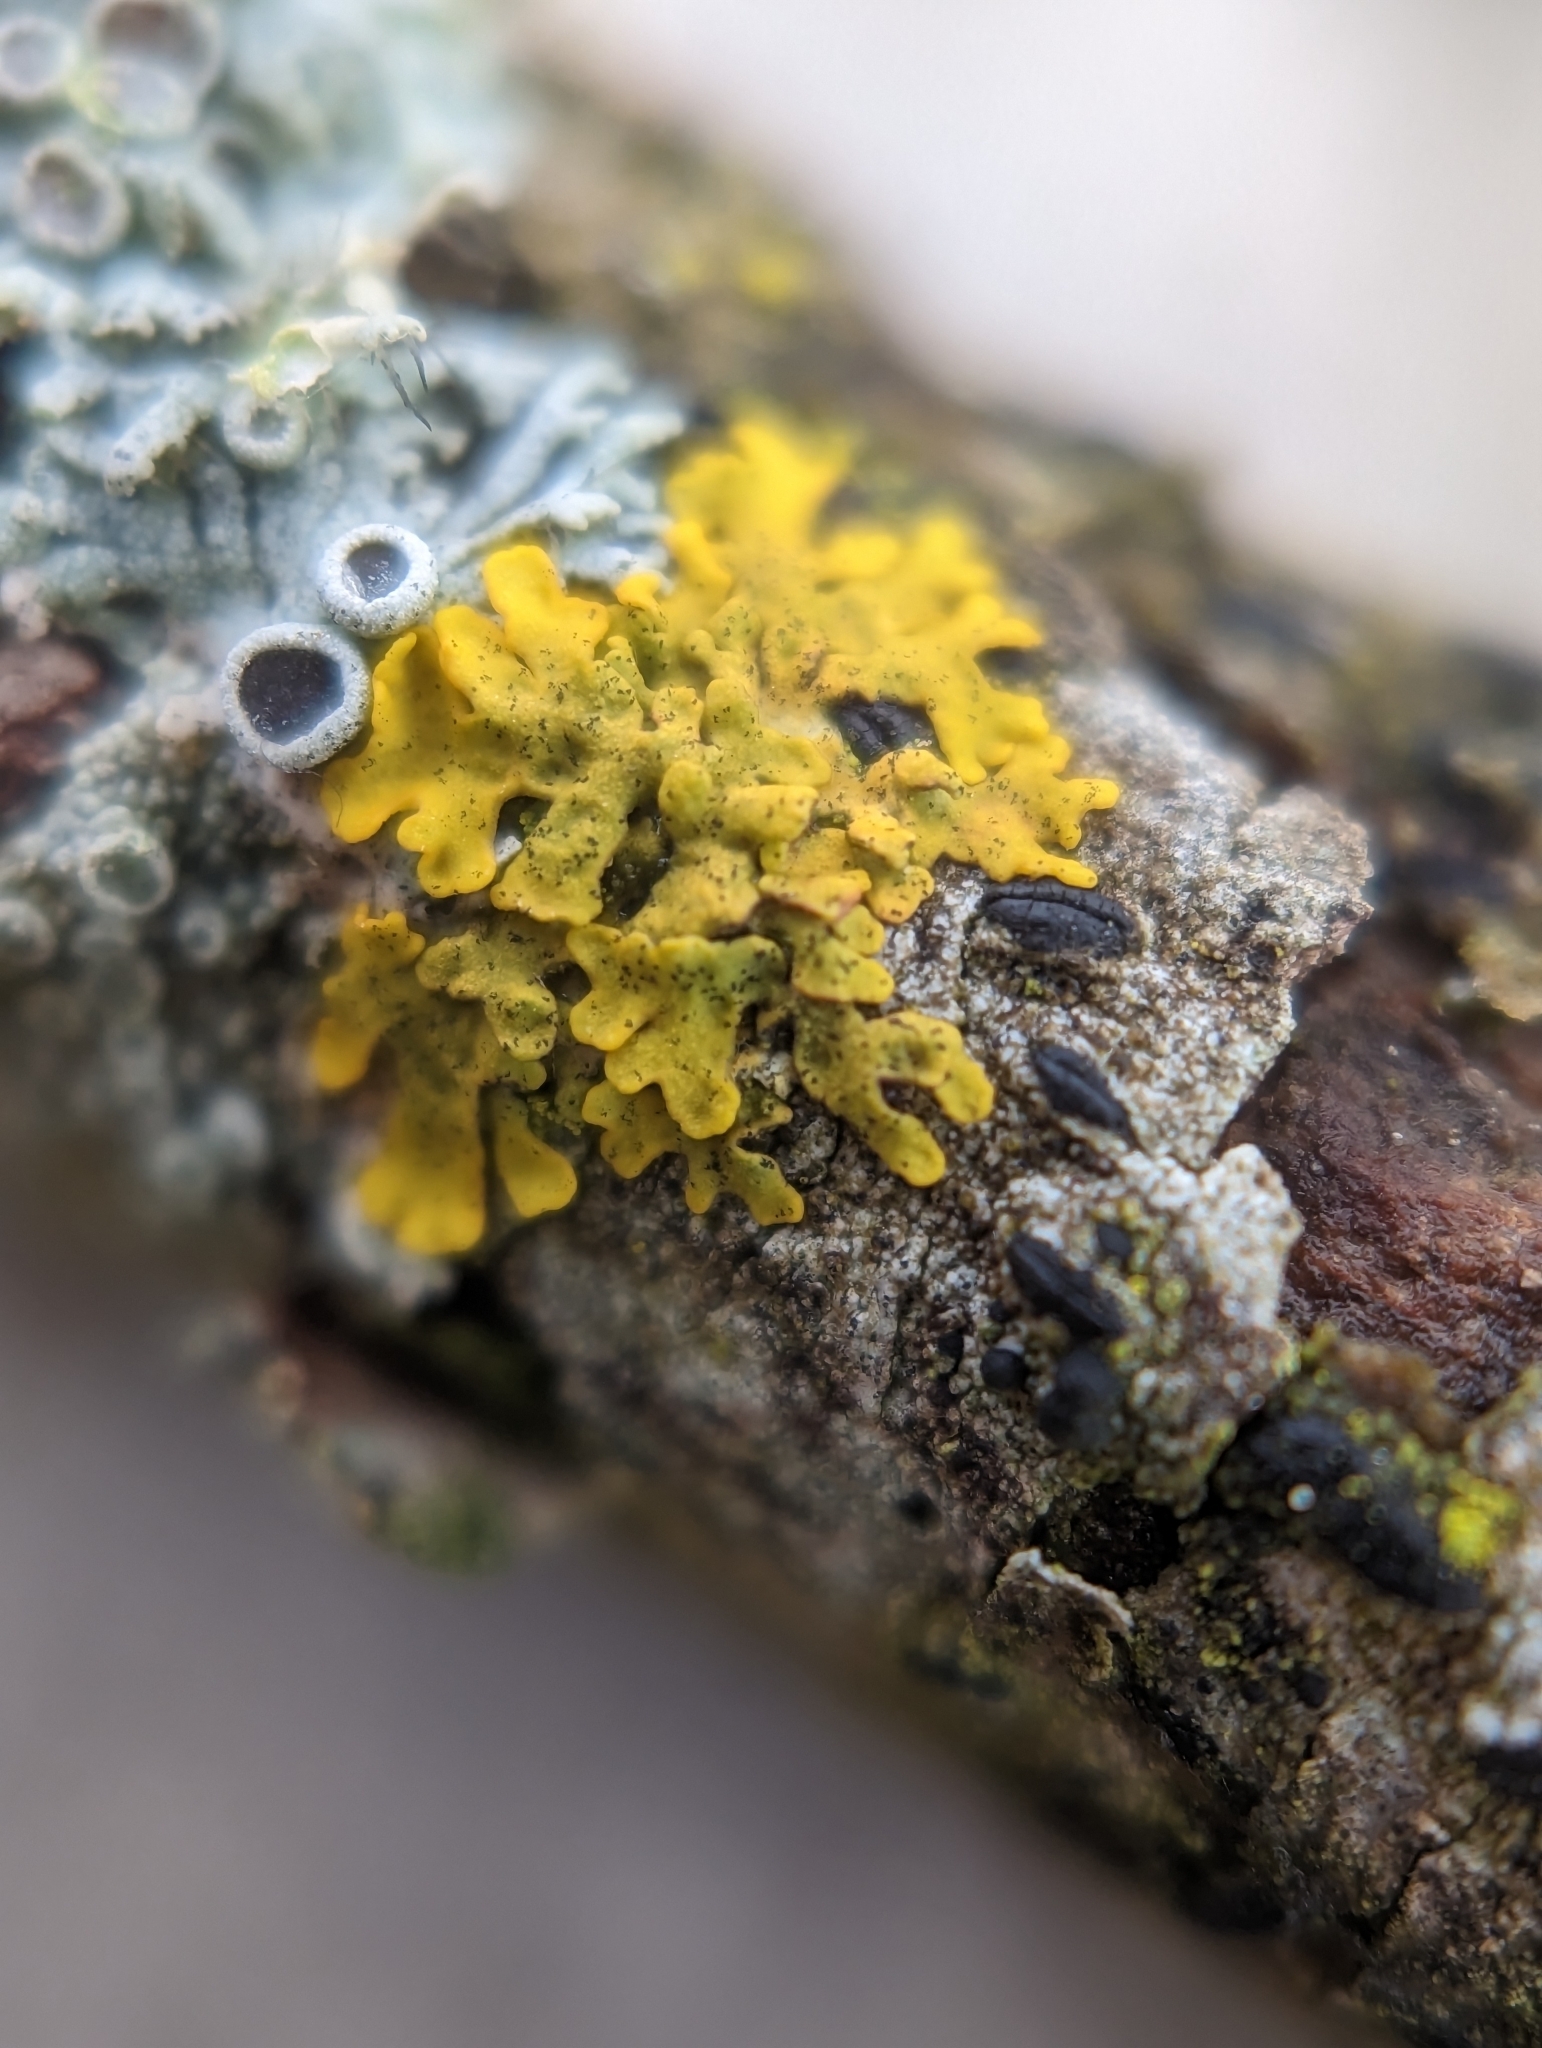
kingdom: Fungi
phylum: Ascomycota
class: Lecanoromycetes
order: Teloschistales
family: Teloschistaceae
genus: Xanthoria
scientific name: Xanthoria parietina
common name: Common orange lichen
